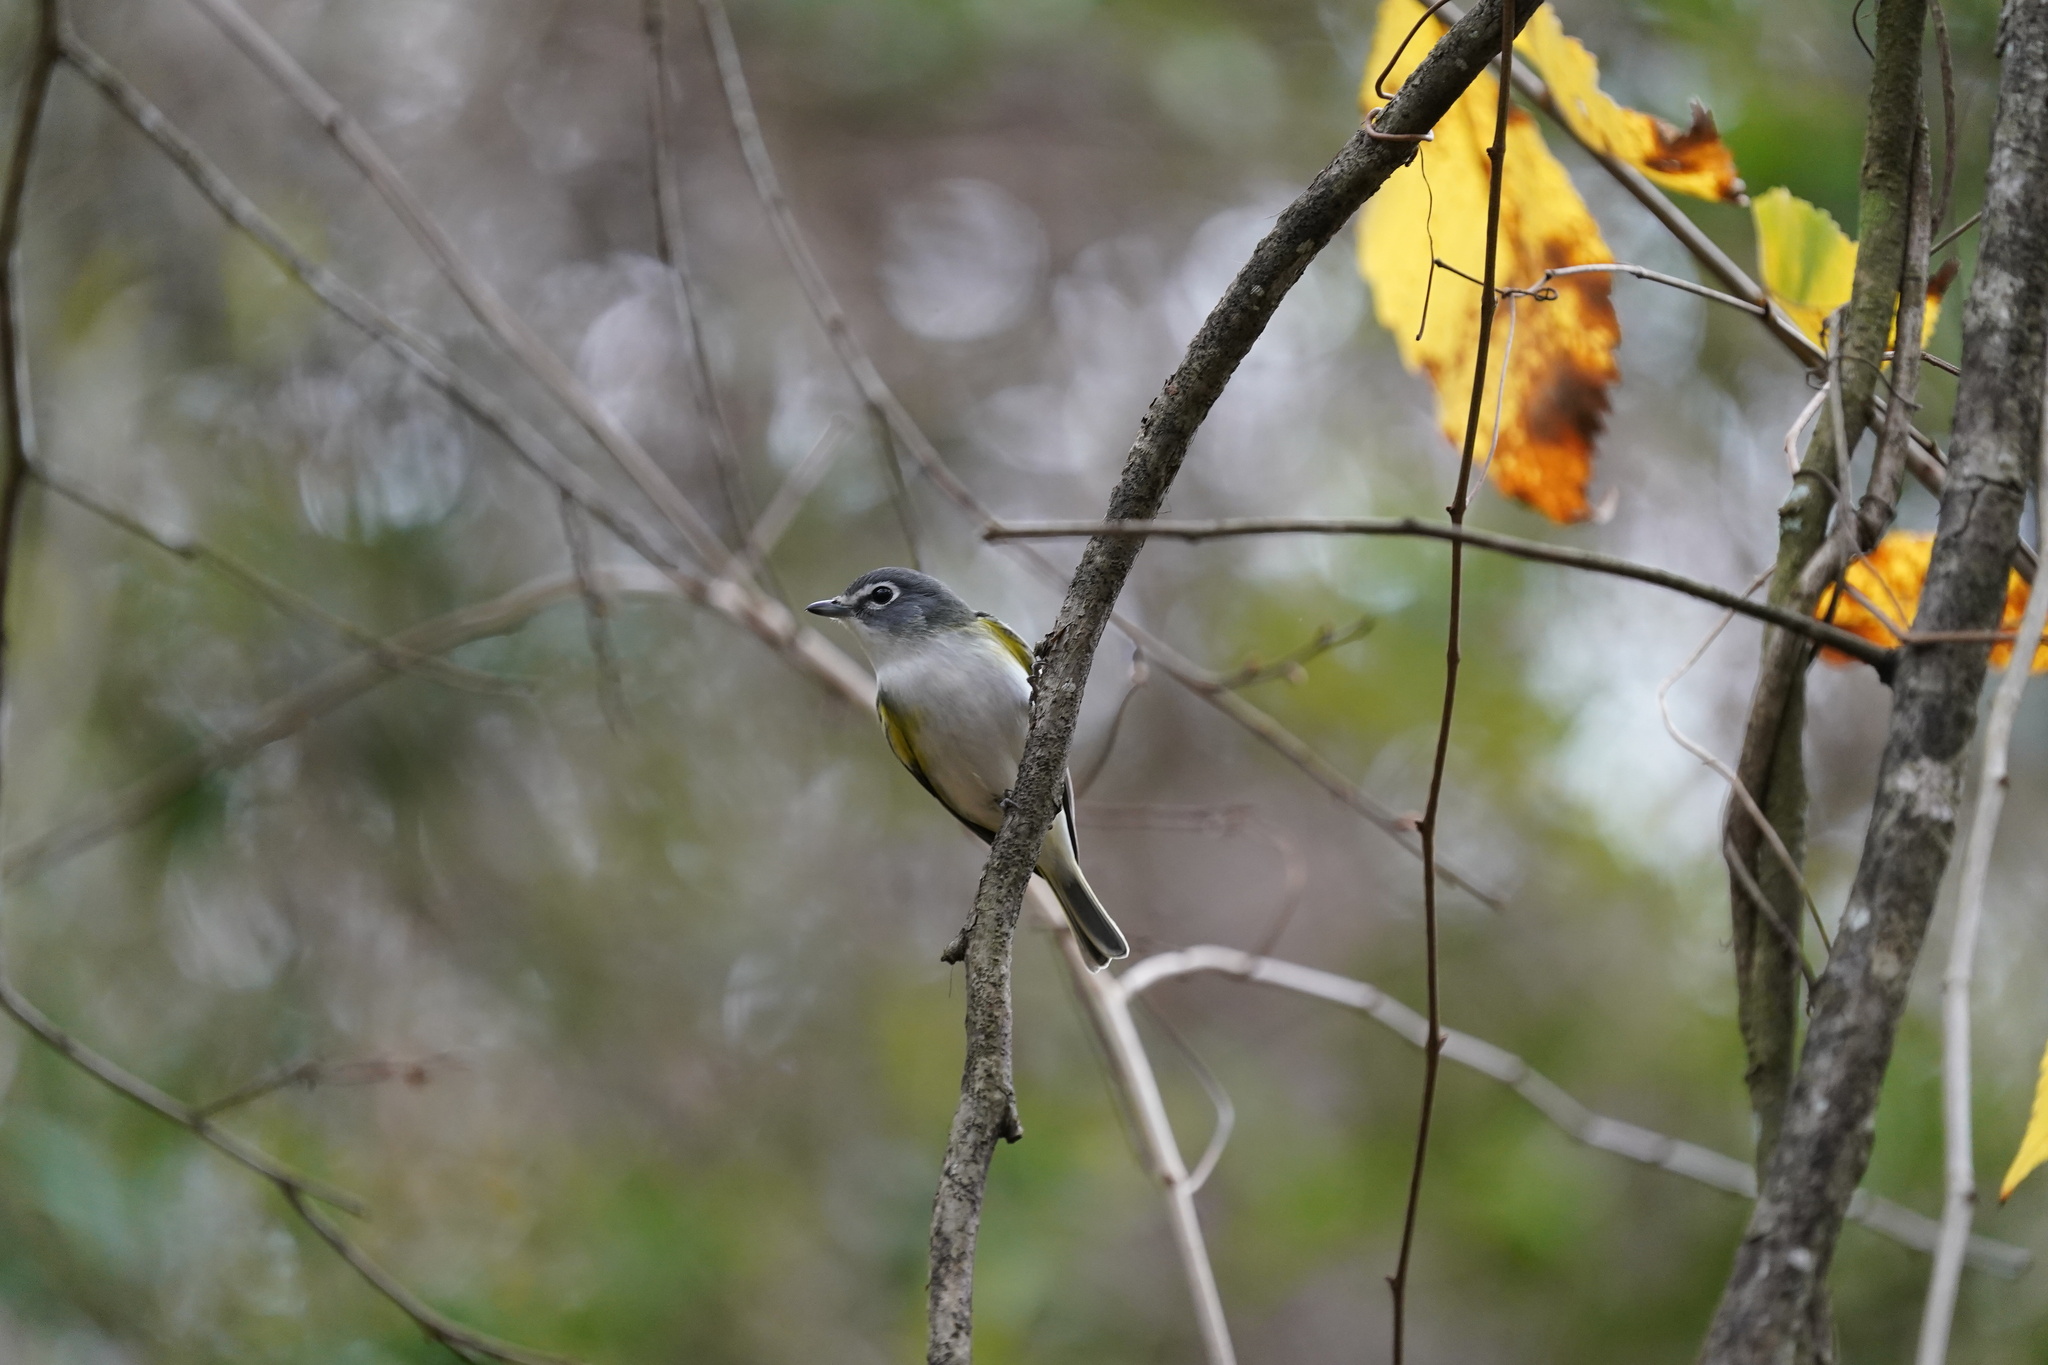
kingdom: Animalia
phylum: Chordata
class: Aves
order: Passeriformes
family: Vireonidae
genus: Vireo
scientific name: Vireo solitarius
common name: Blue-headed vireo
